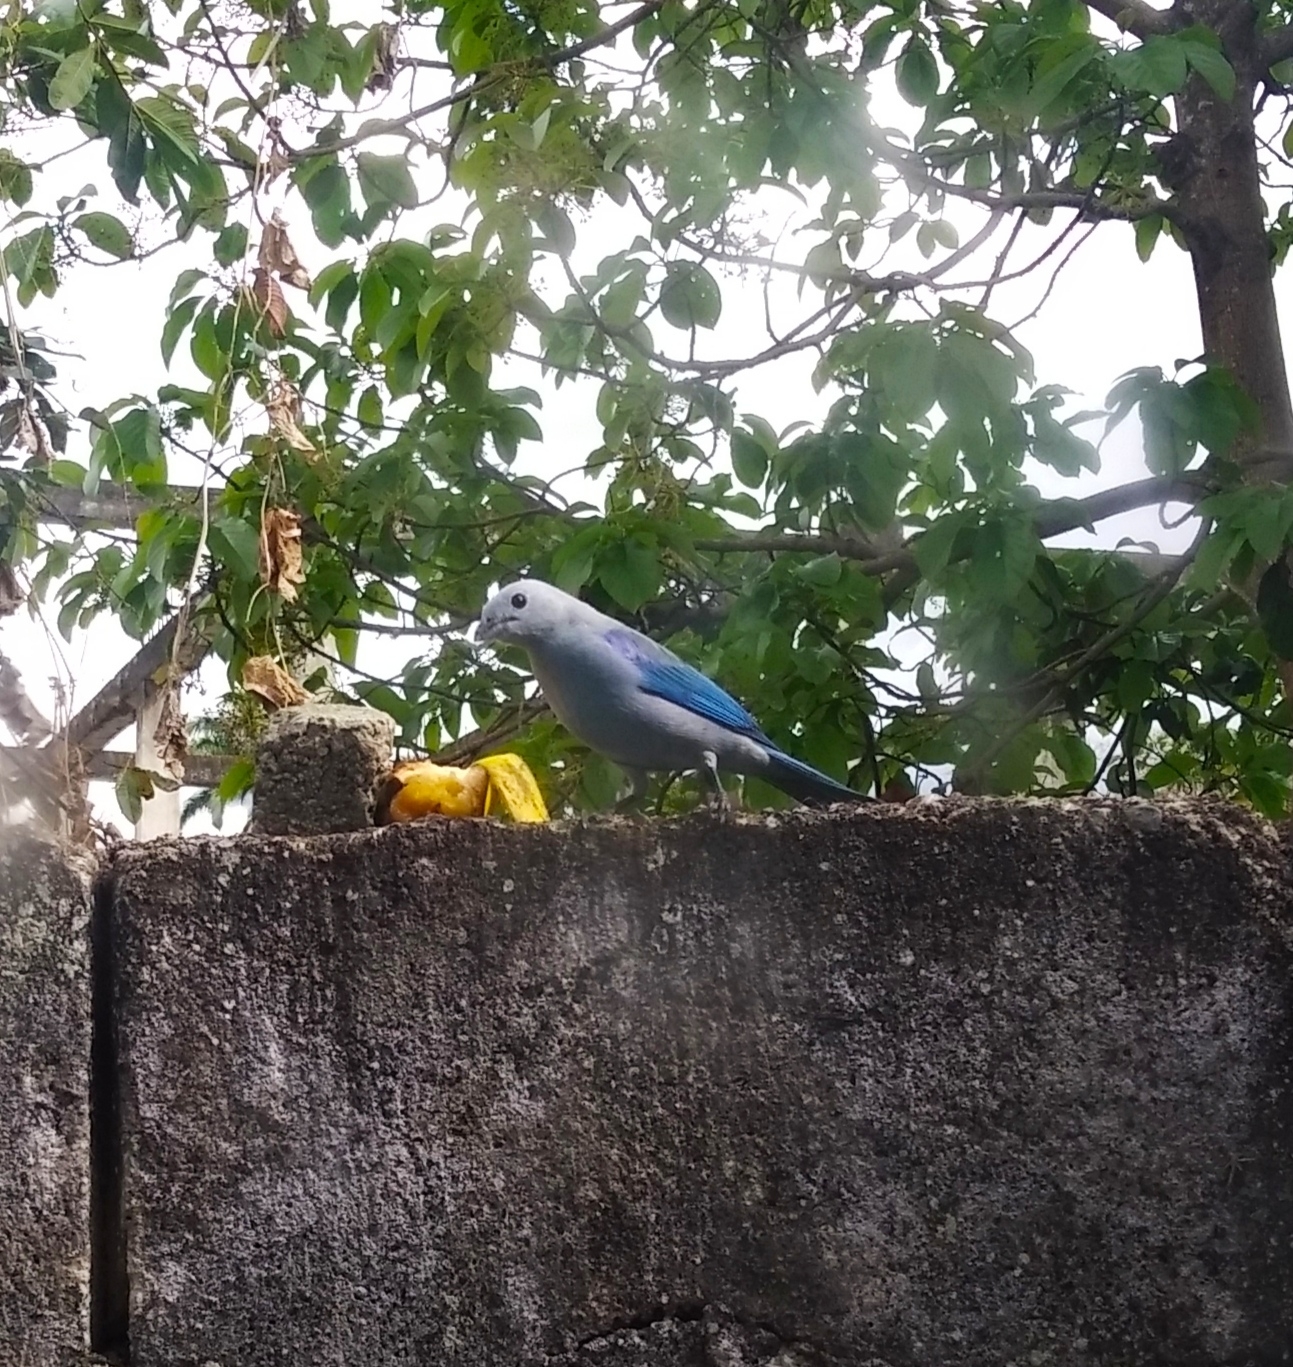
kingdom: Animalia
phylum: Chordata
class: Aves
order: Passeriformes
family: Thraupidae
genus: Thraupis
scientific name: Thraupis episcopus
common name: Blue-grey tanager
